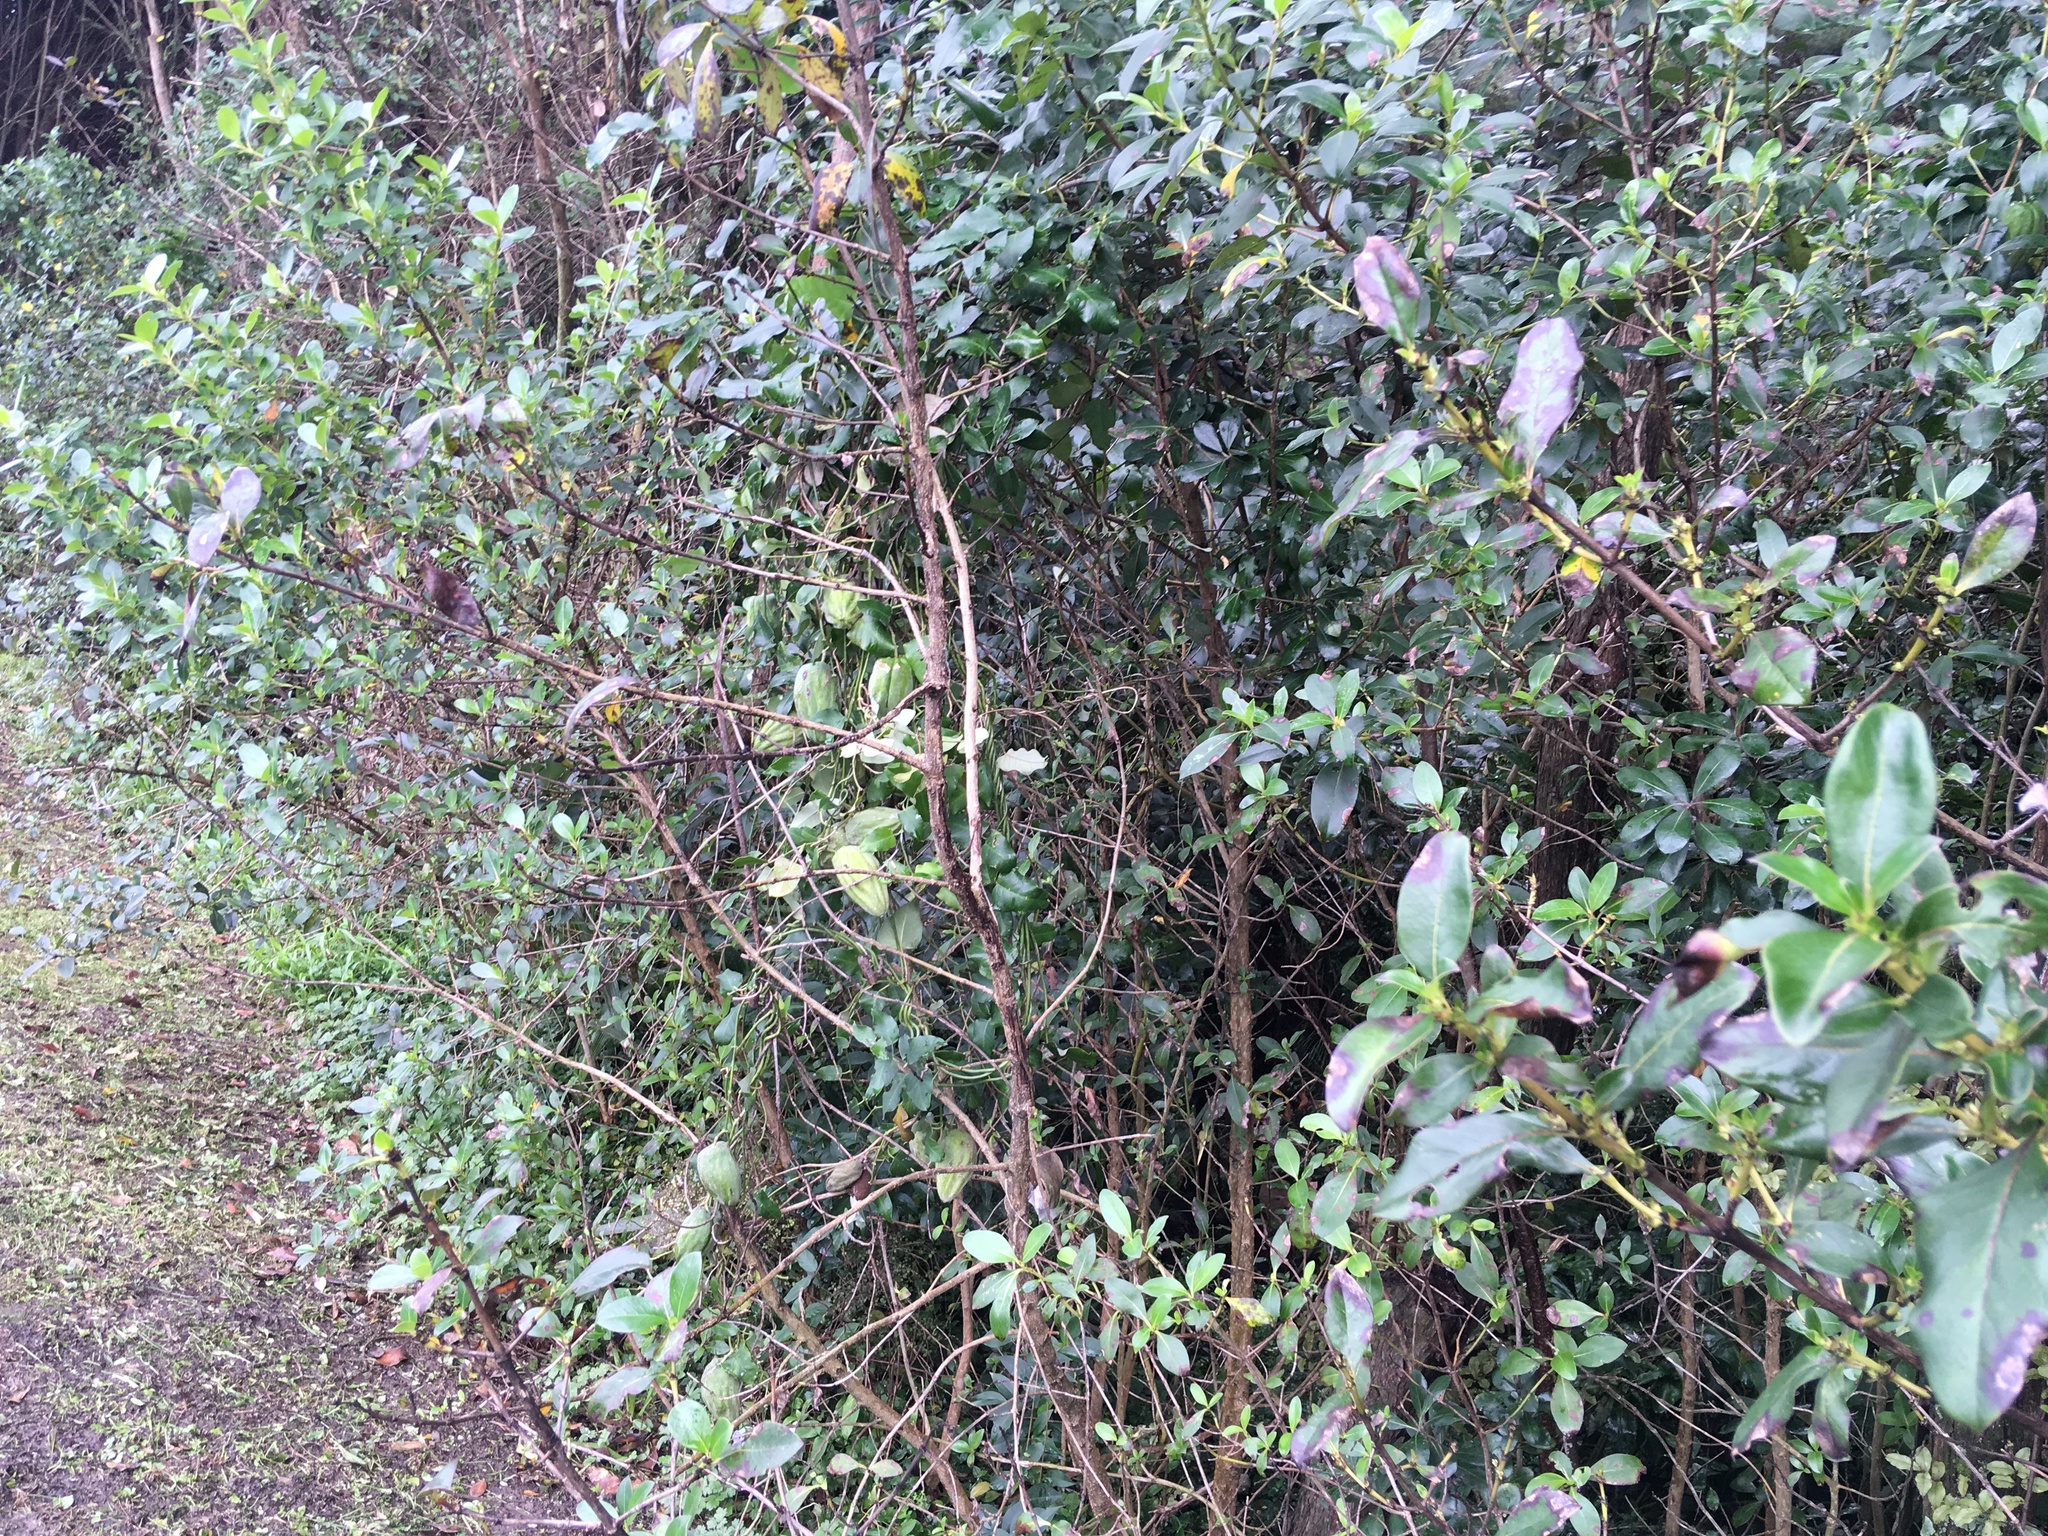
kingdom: Plantae
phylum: Tracheophyta
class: Magnoliopsida
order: Gentianales
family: Apocynaceae
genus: Araujia
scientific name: Araujia sericifera
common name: White bladderflower
